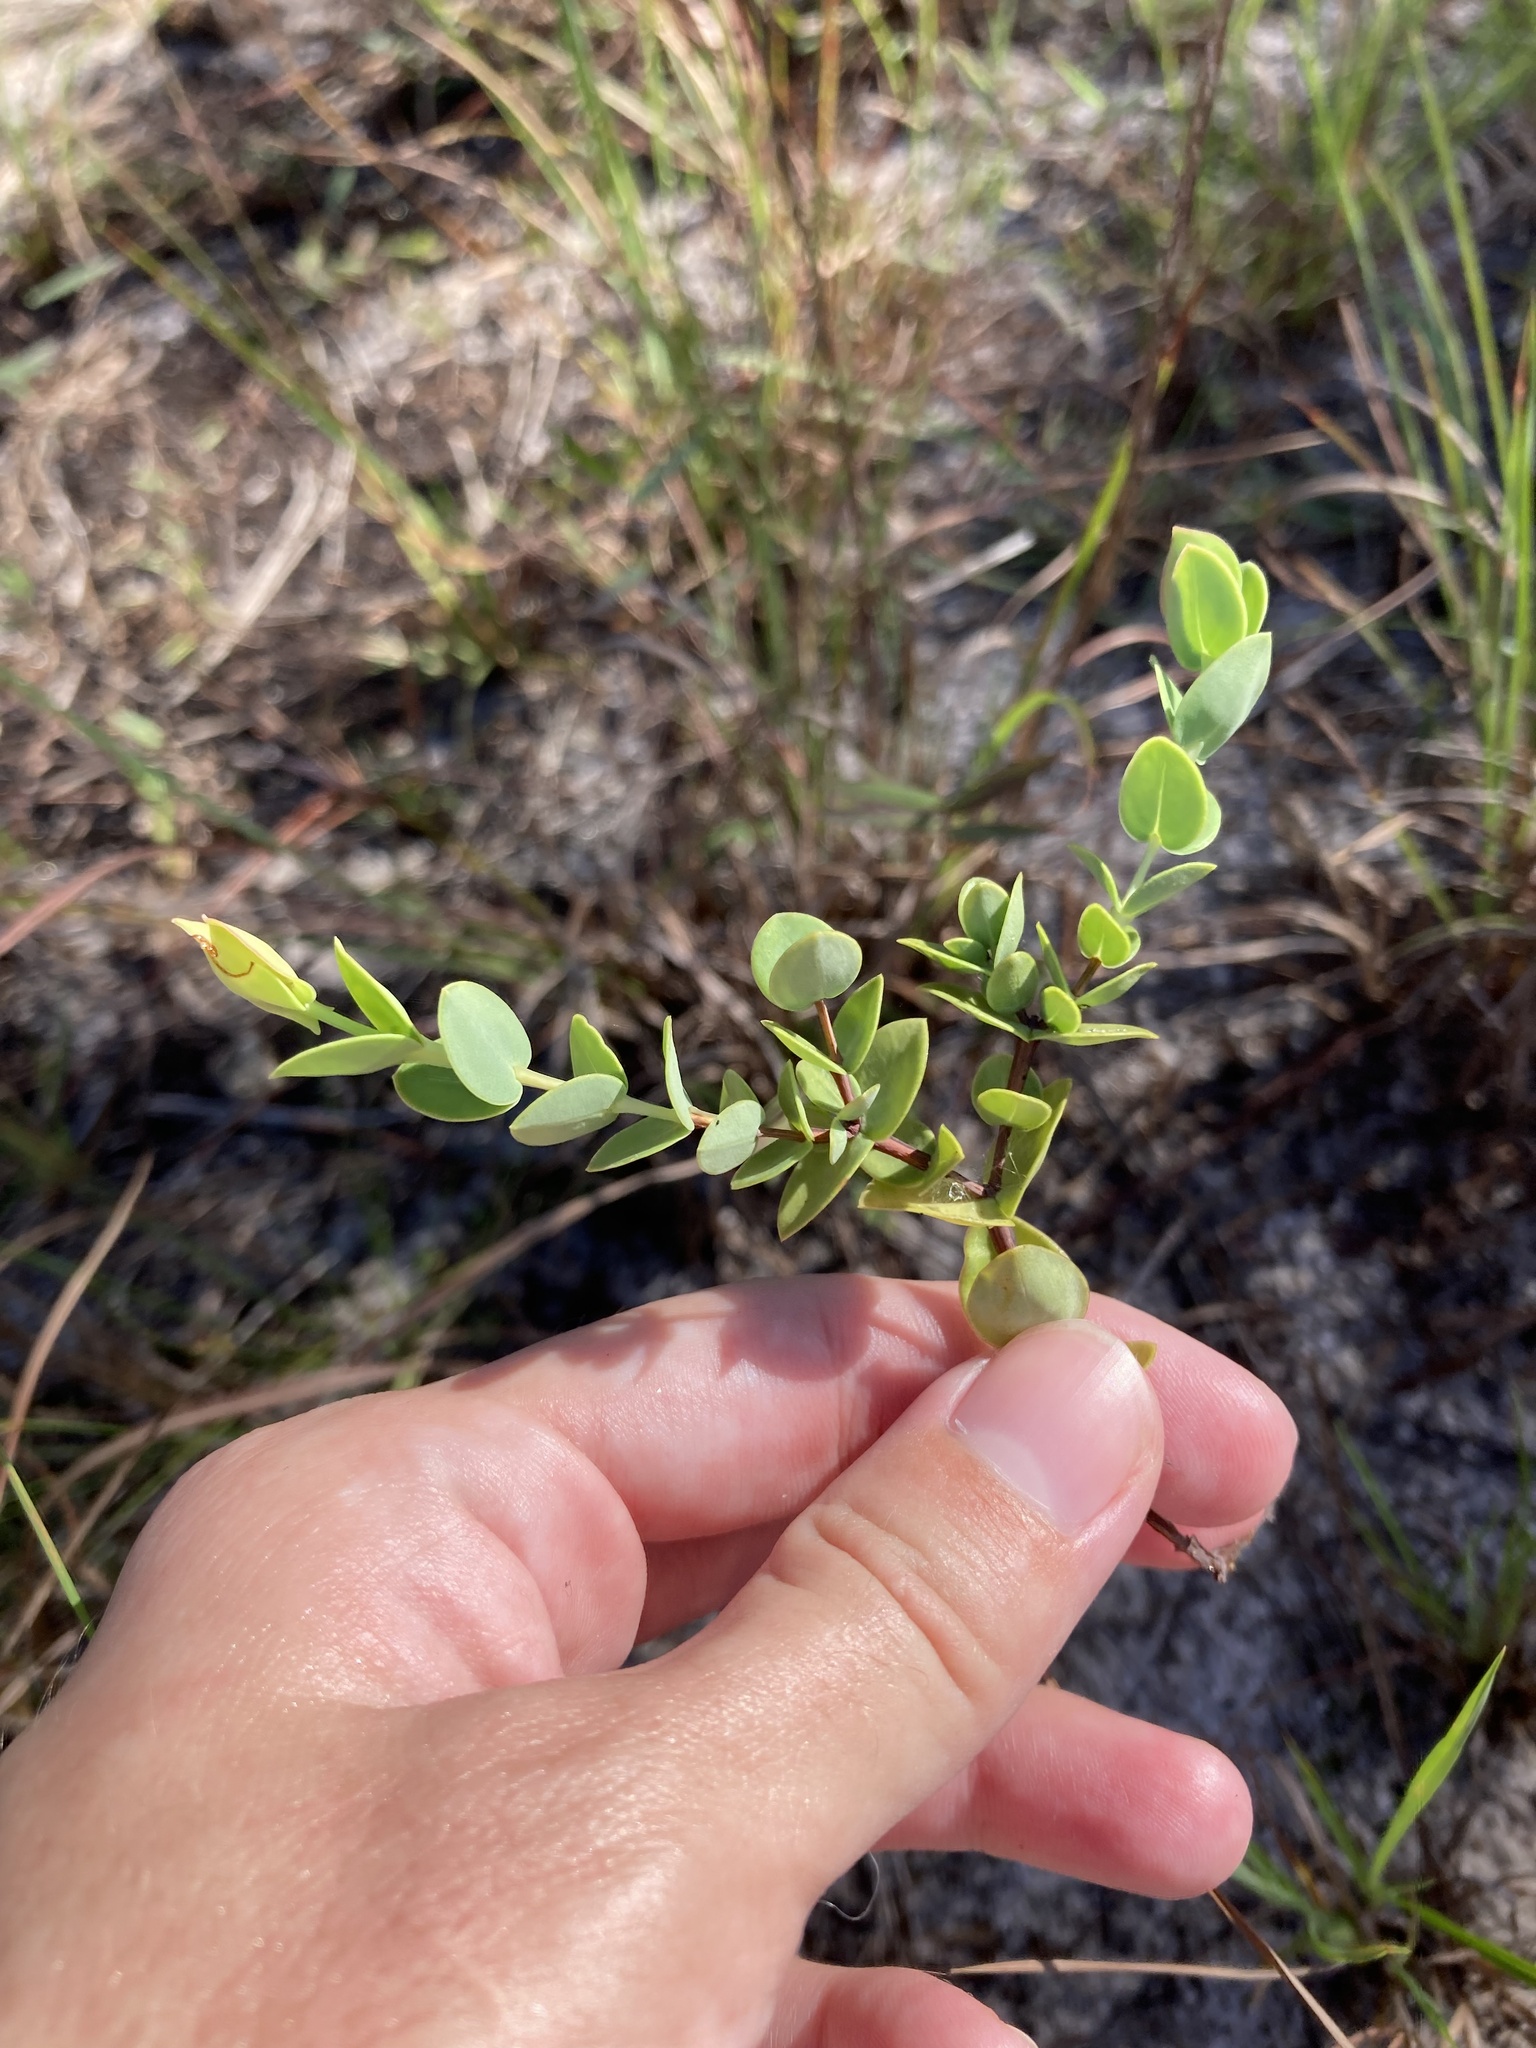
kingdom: Plantae
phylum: Tracheophyta
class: Magnoliopsida
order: Malpighiales
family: Hypericaceae
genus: Hypericum
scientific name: Hypericum tetrapetalum
